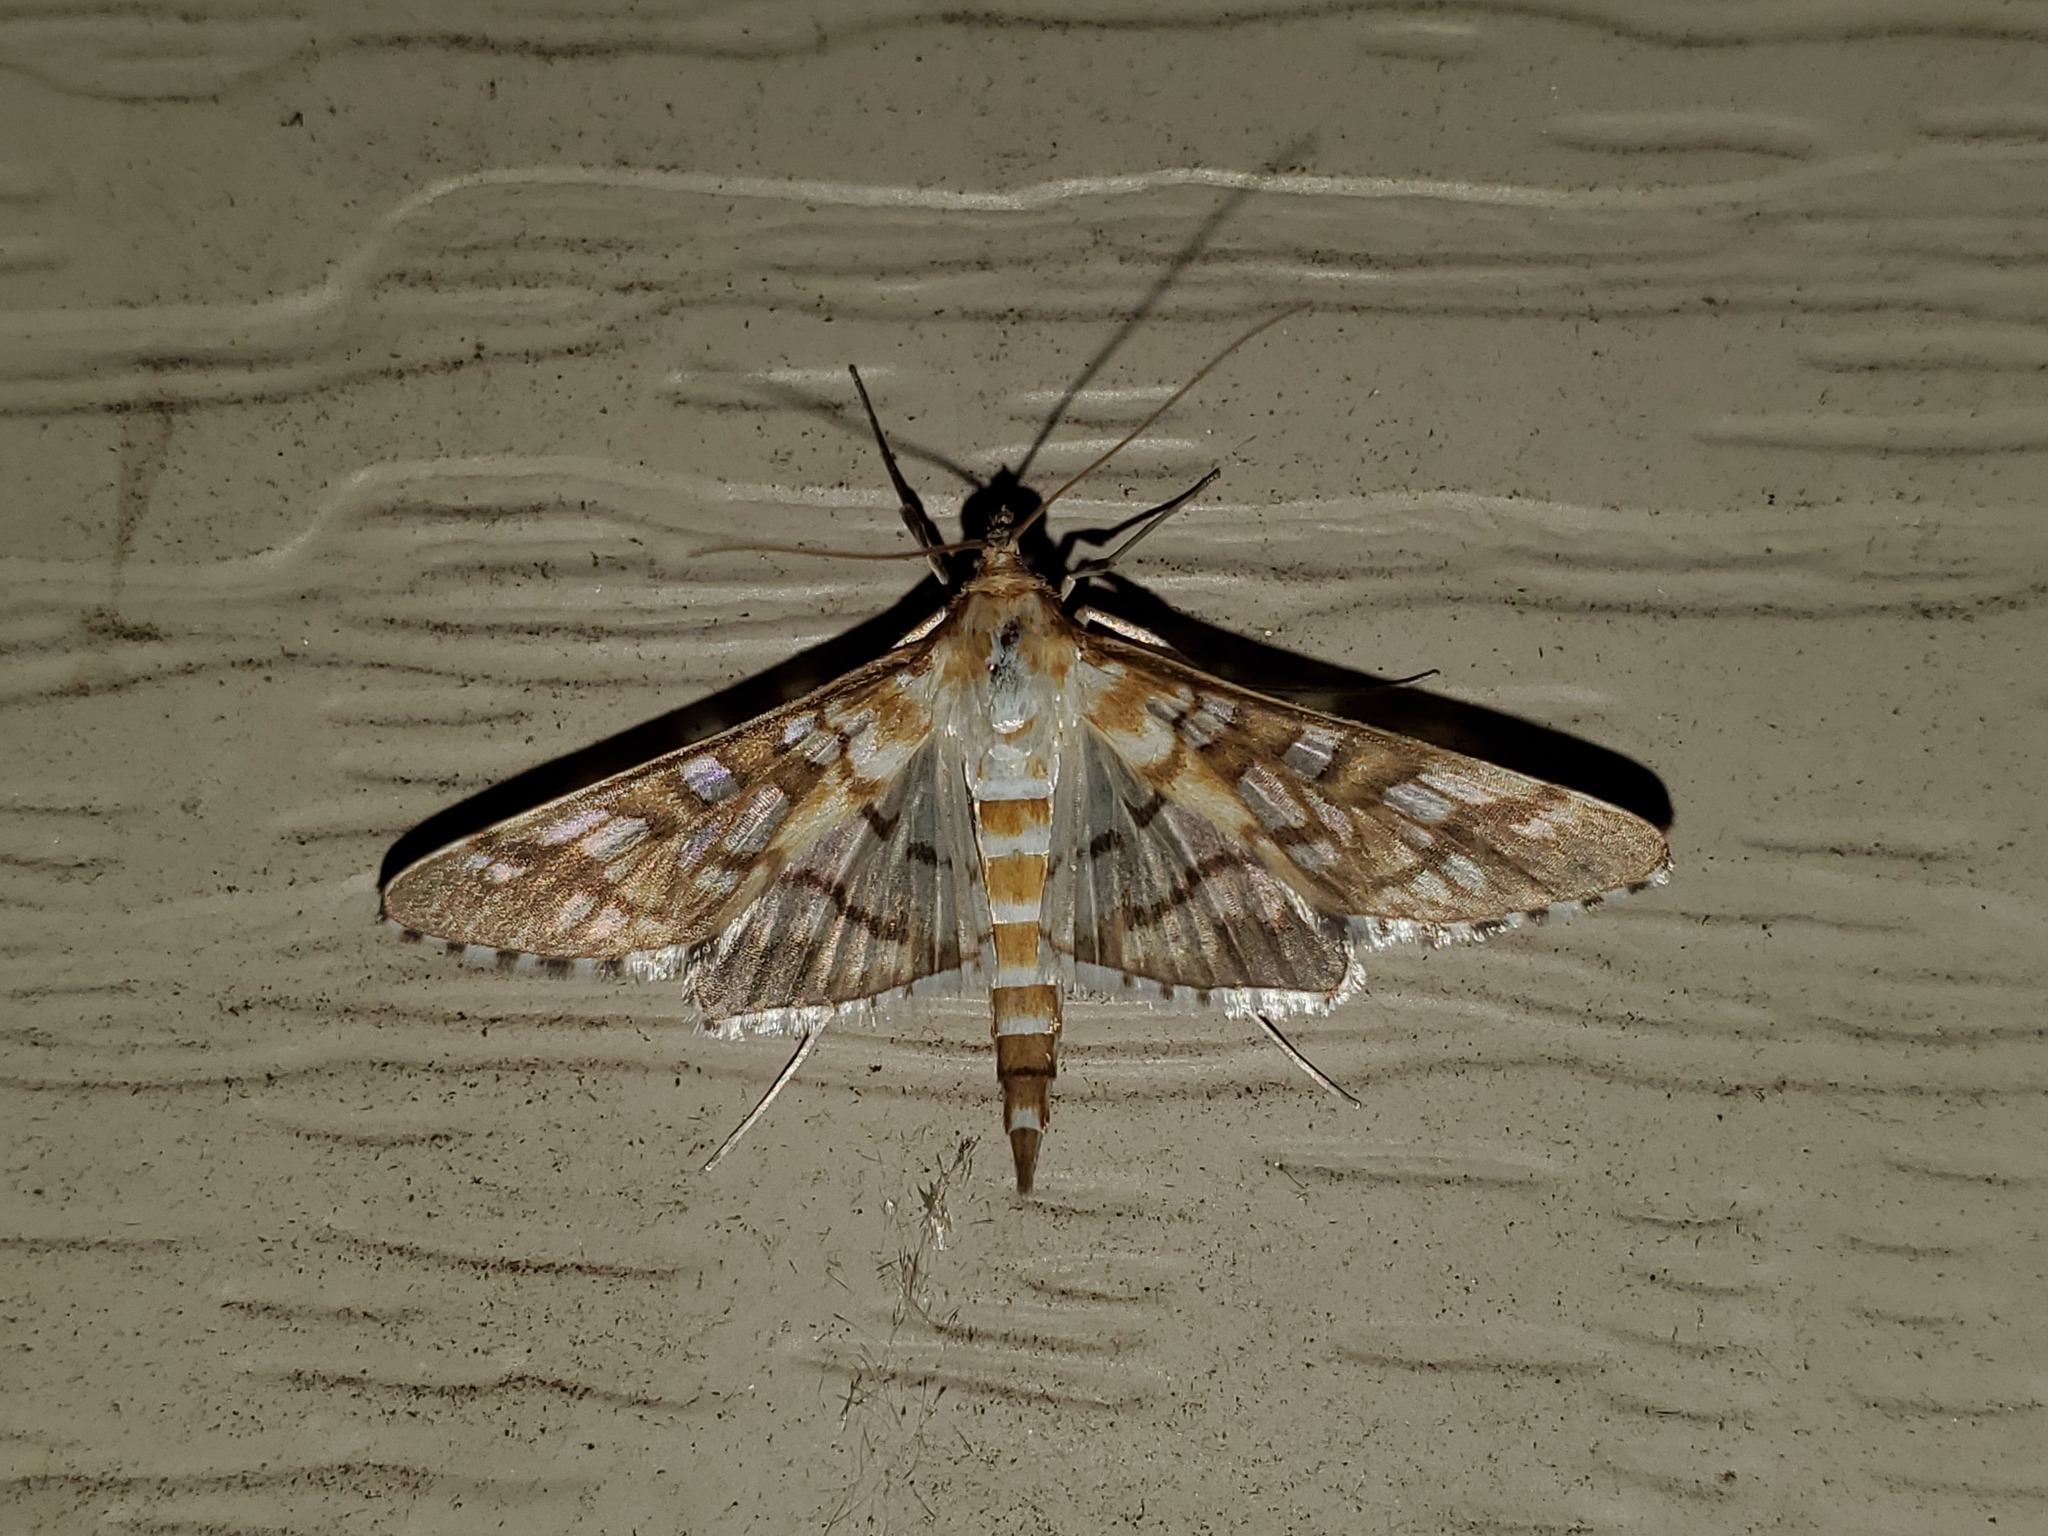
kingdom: Animalia
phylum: Arthropoda
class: Insecta
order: Lepidoptera
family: Crambidae
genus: Epipagis
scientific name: Epipagis fenestralis
